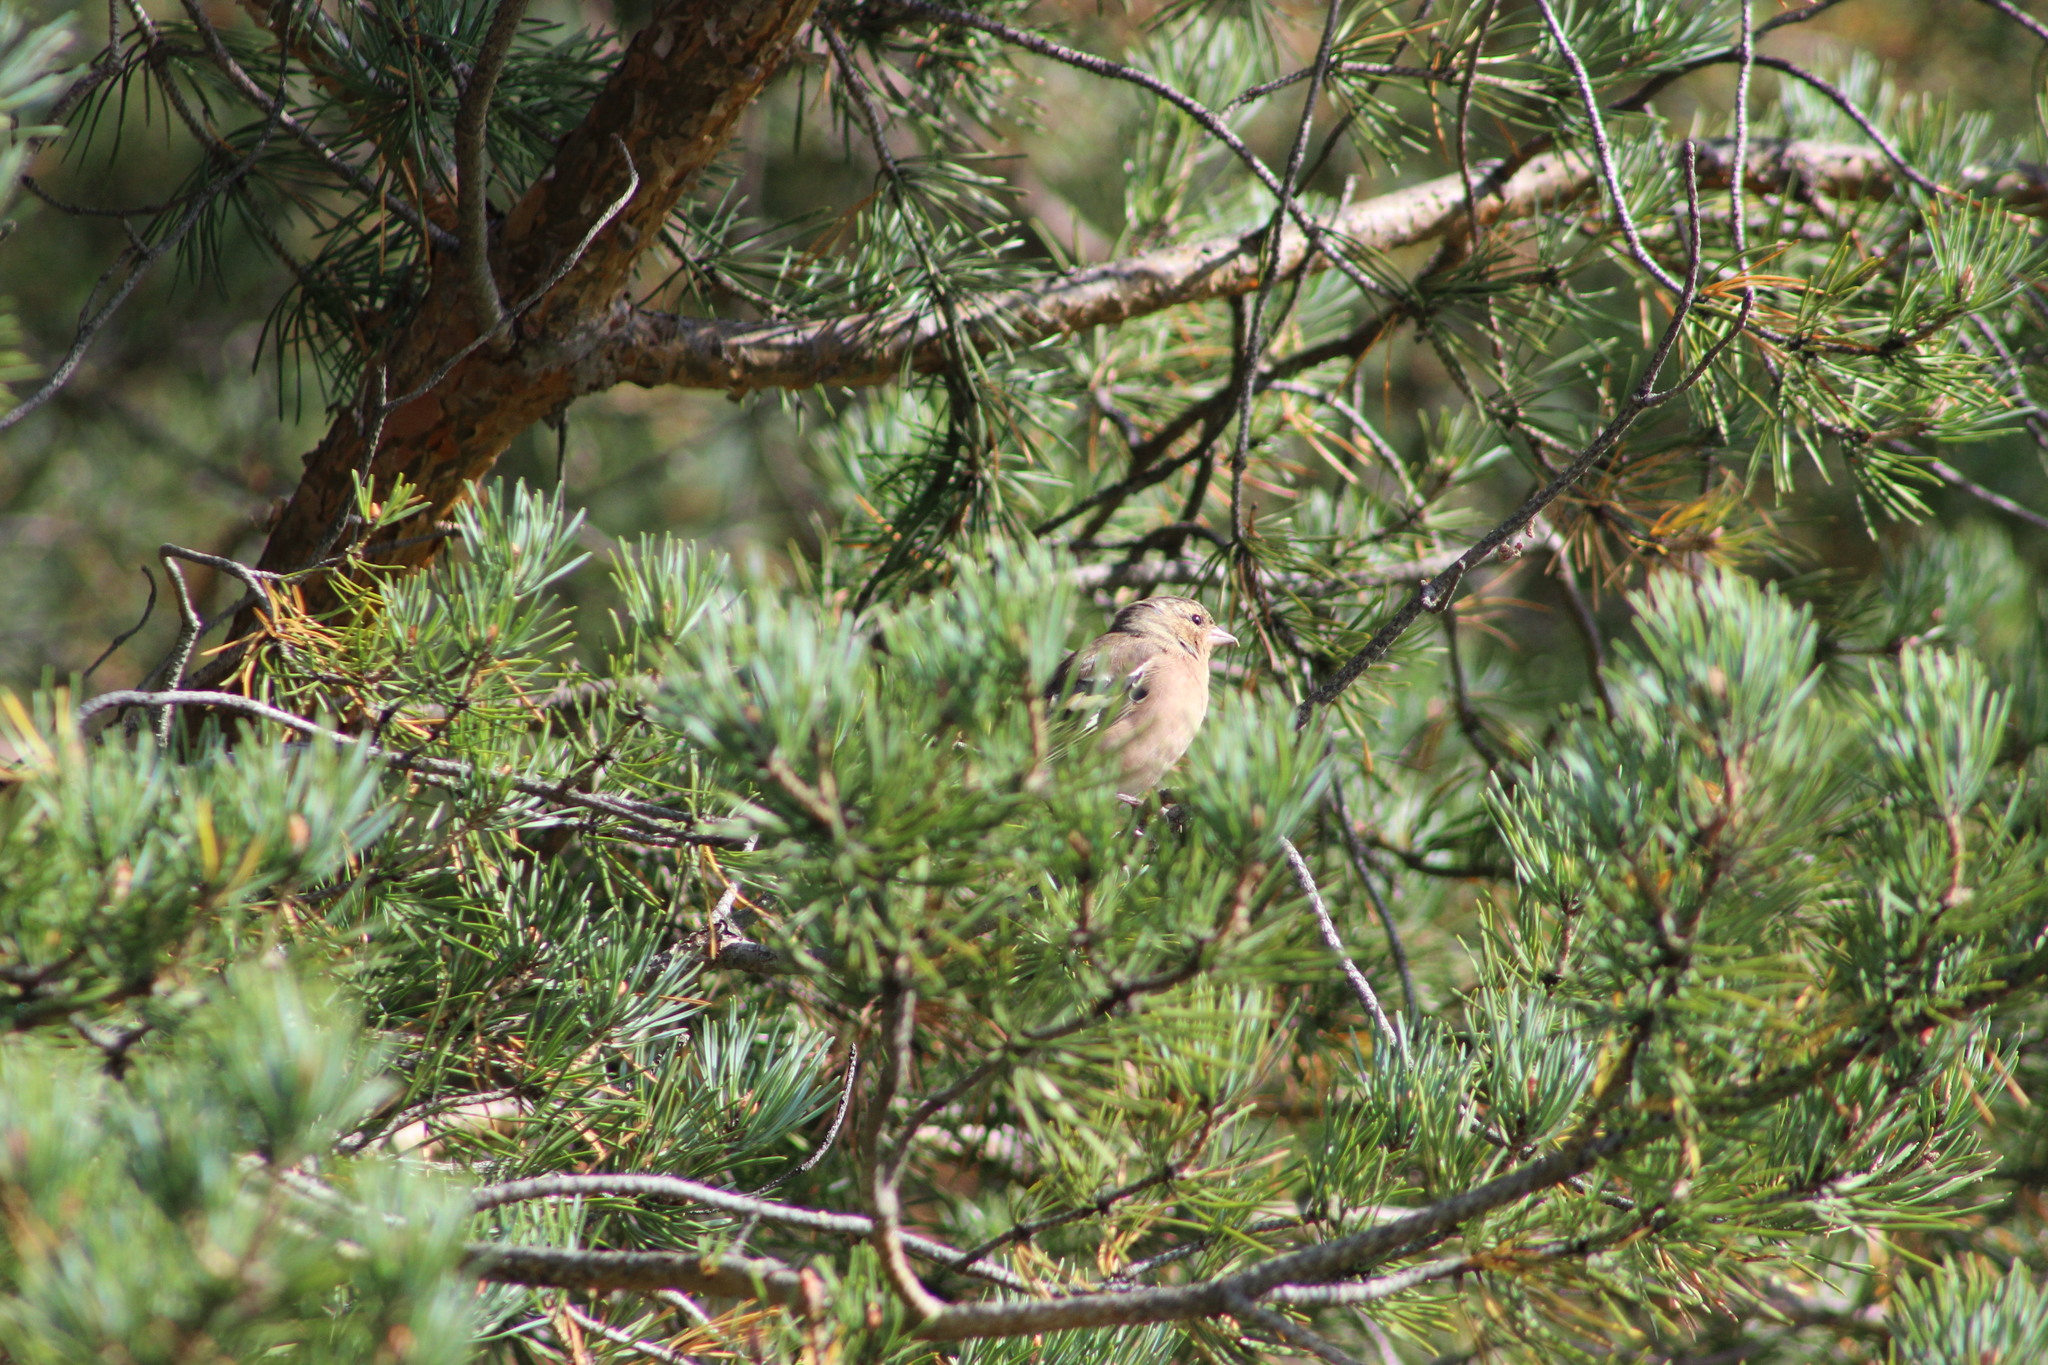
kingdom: Animalia
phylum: Chordata
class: Aves
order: Passeriformes
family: Fringillidae
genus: Fringilla
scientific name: Fringilla coelebs
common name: Common chaffinch
